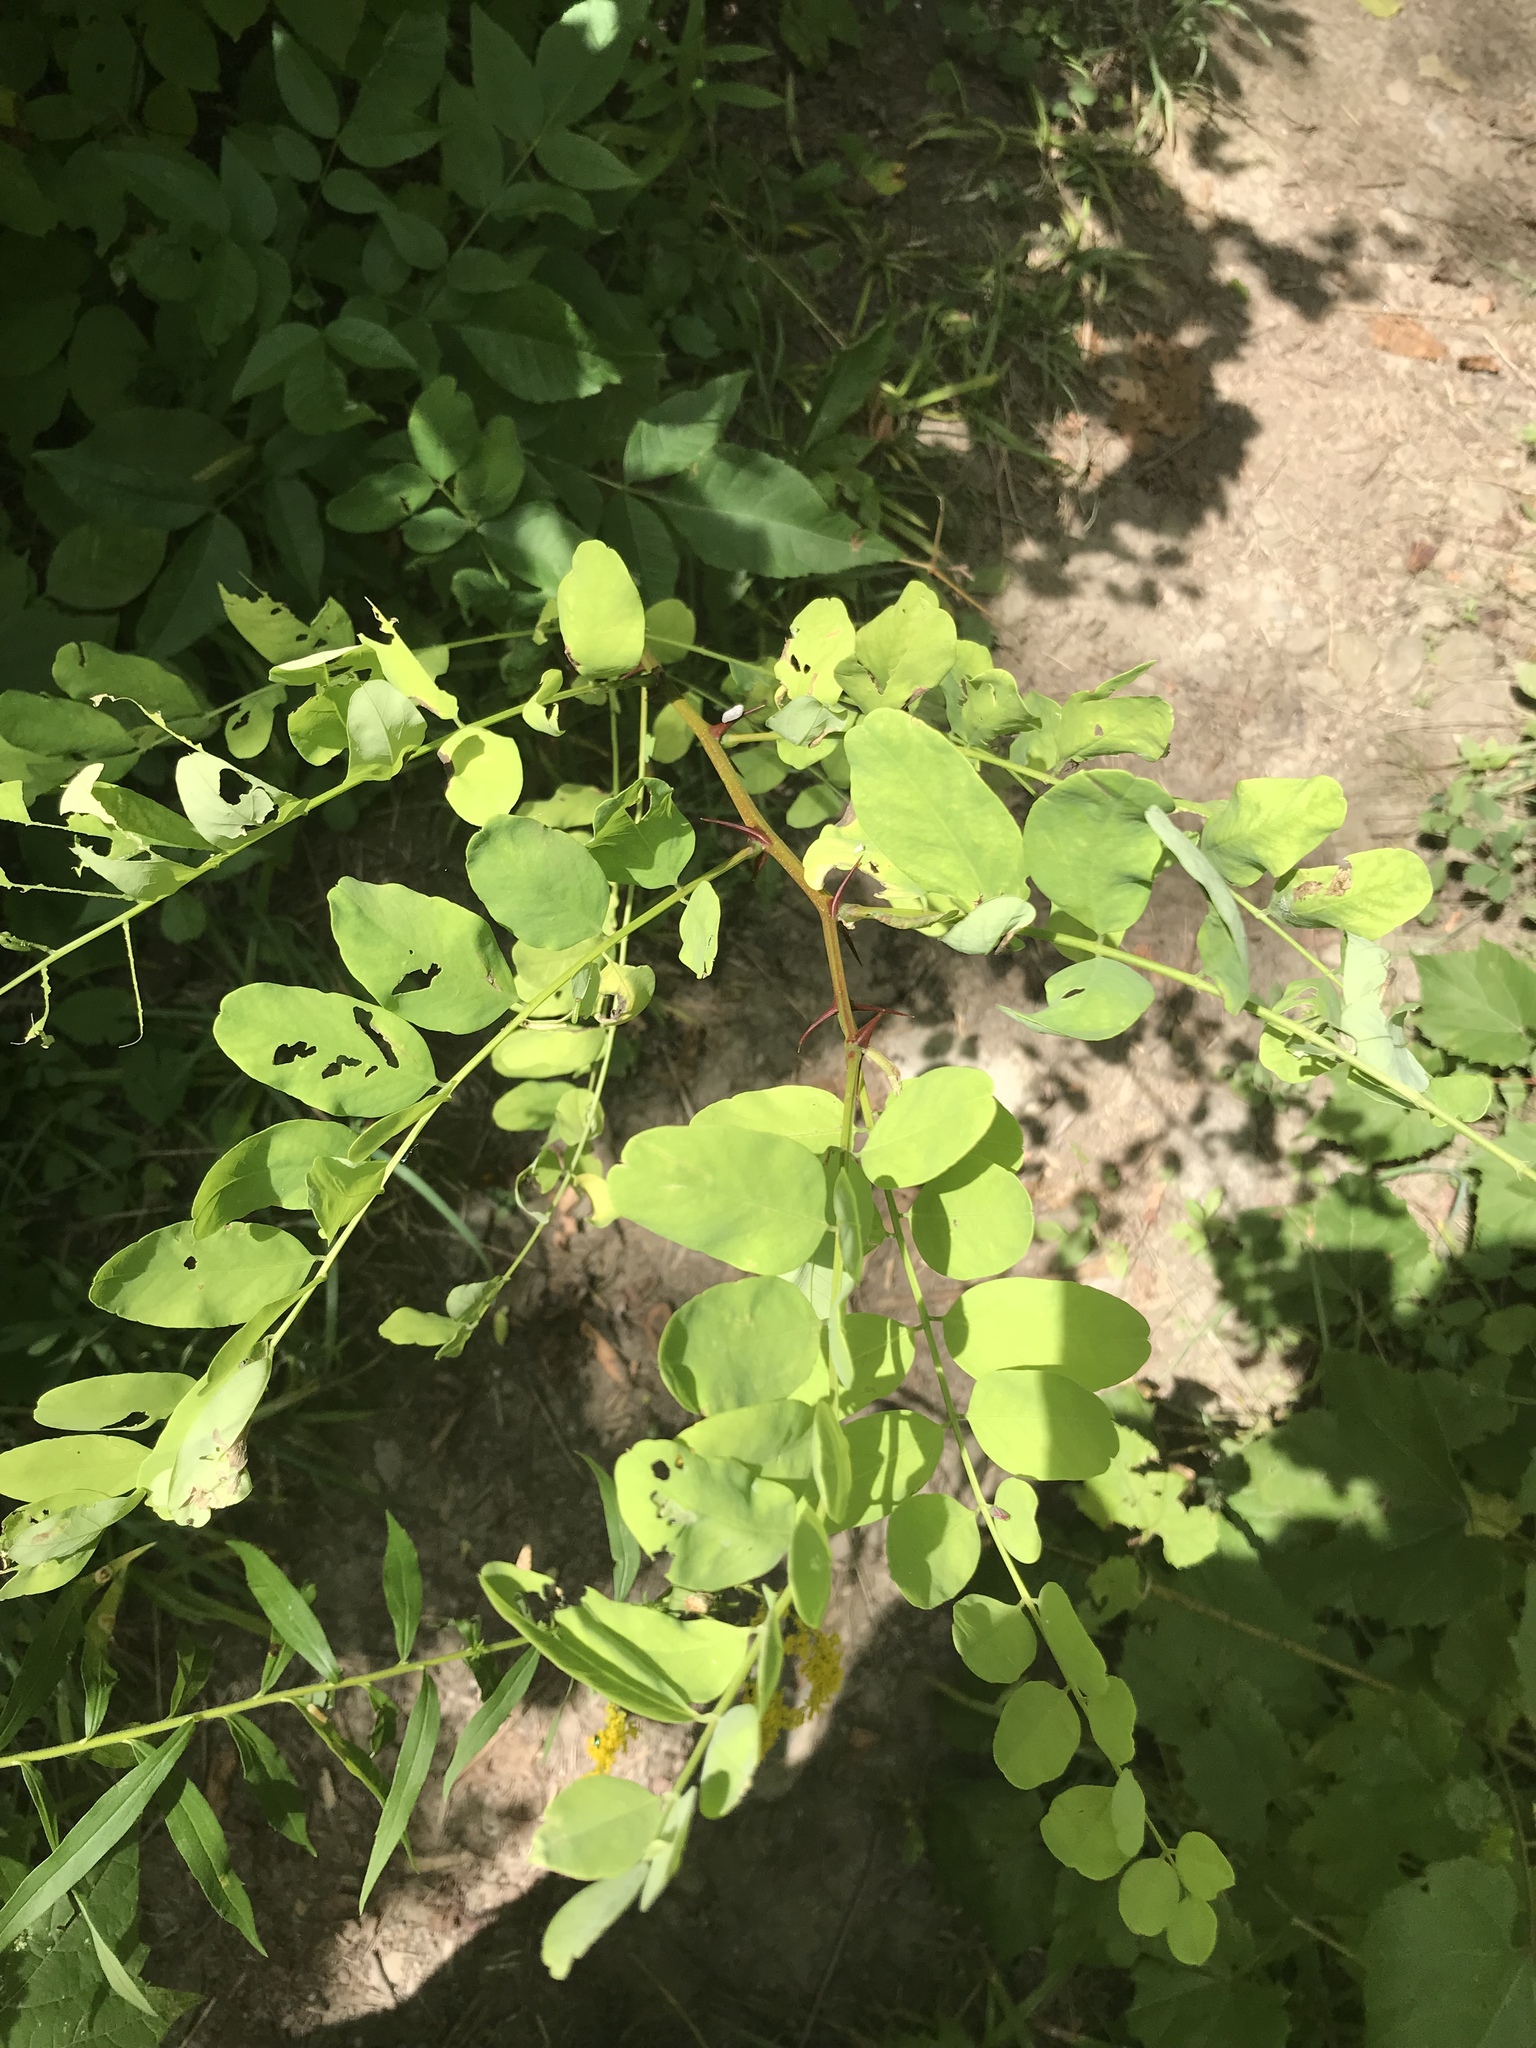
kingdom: Plantae
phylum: Tracheophyta
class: Magnoliopsida
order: Fabales
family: Fabaceae
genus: Robinia
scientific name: Robinia pseudoacacia
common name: Black locust
